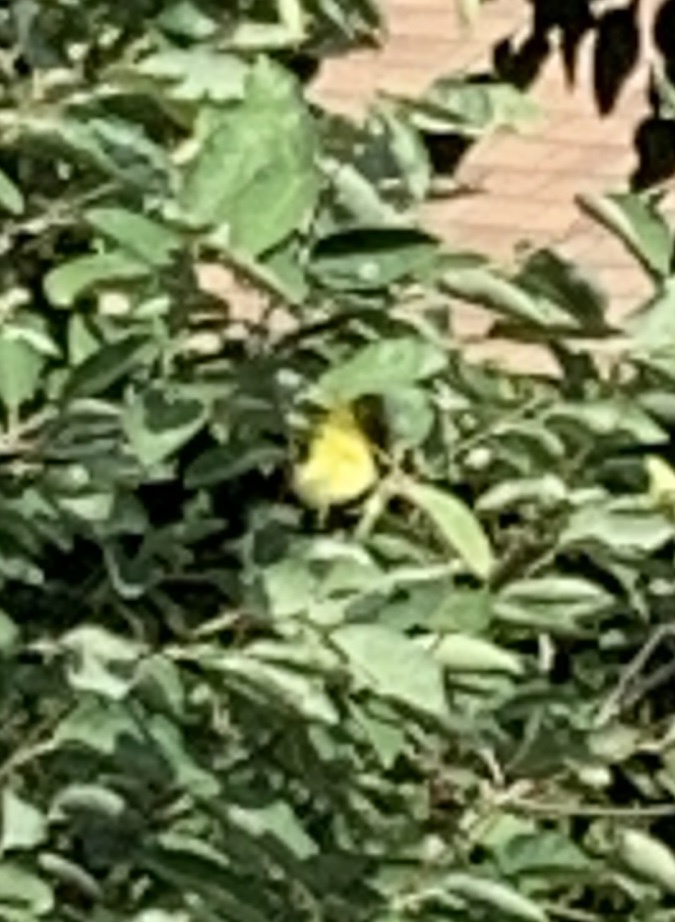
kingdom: Animalia
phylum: Chordata
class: Aves
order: Passeriformes
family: Fringillidae
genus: Spinus
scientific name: Spinus tristis
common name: American goldfinch
